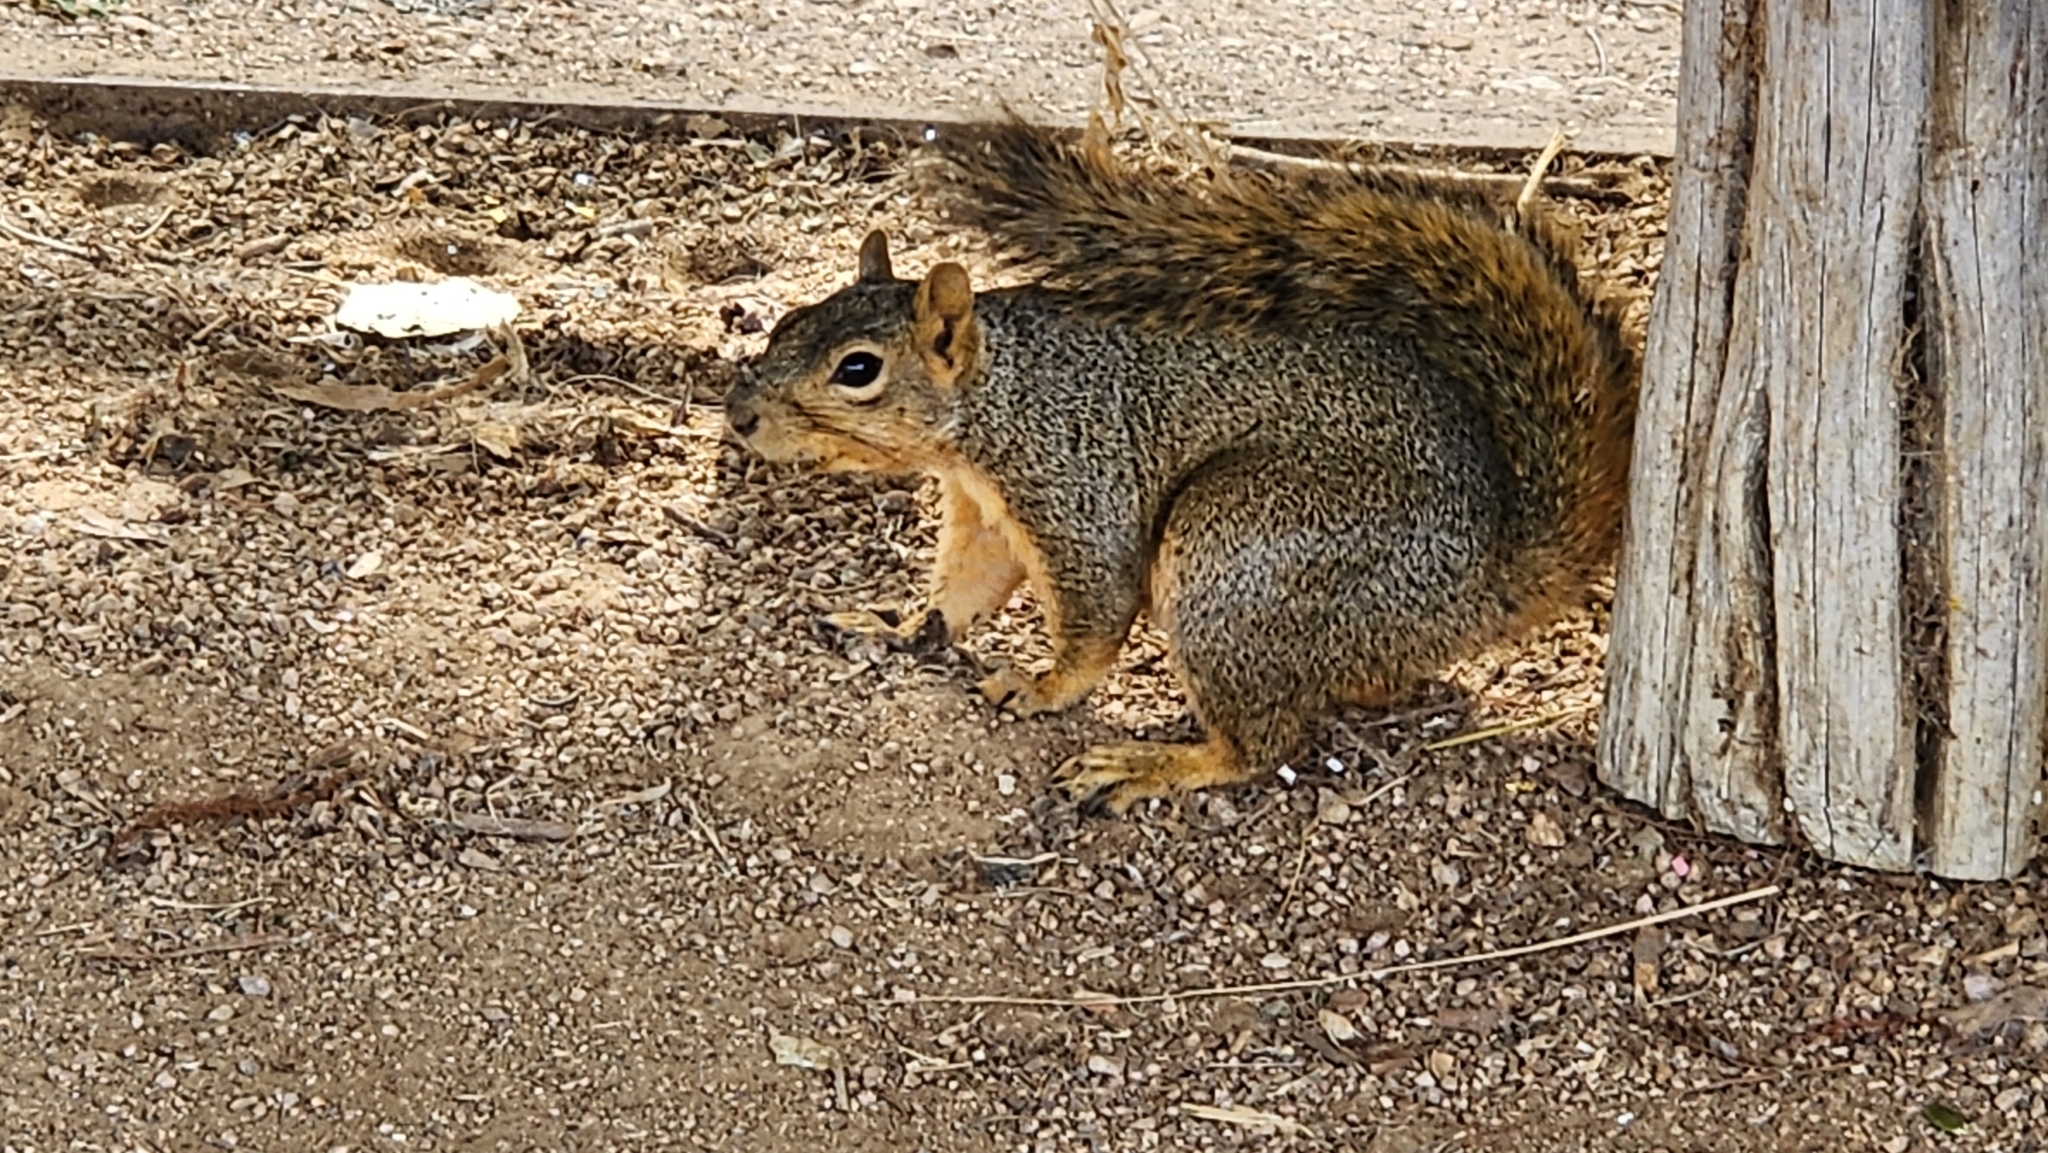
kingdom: Animalia
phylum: Chordata
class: Mammalia
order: Rodentia
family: Sciuridae
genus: Sciurus
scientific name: Sciurus niger
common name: Fox squirrel
